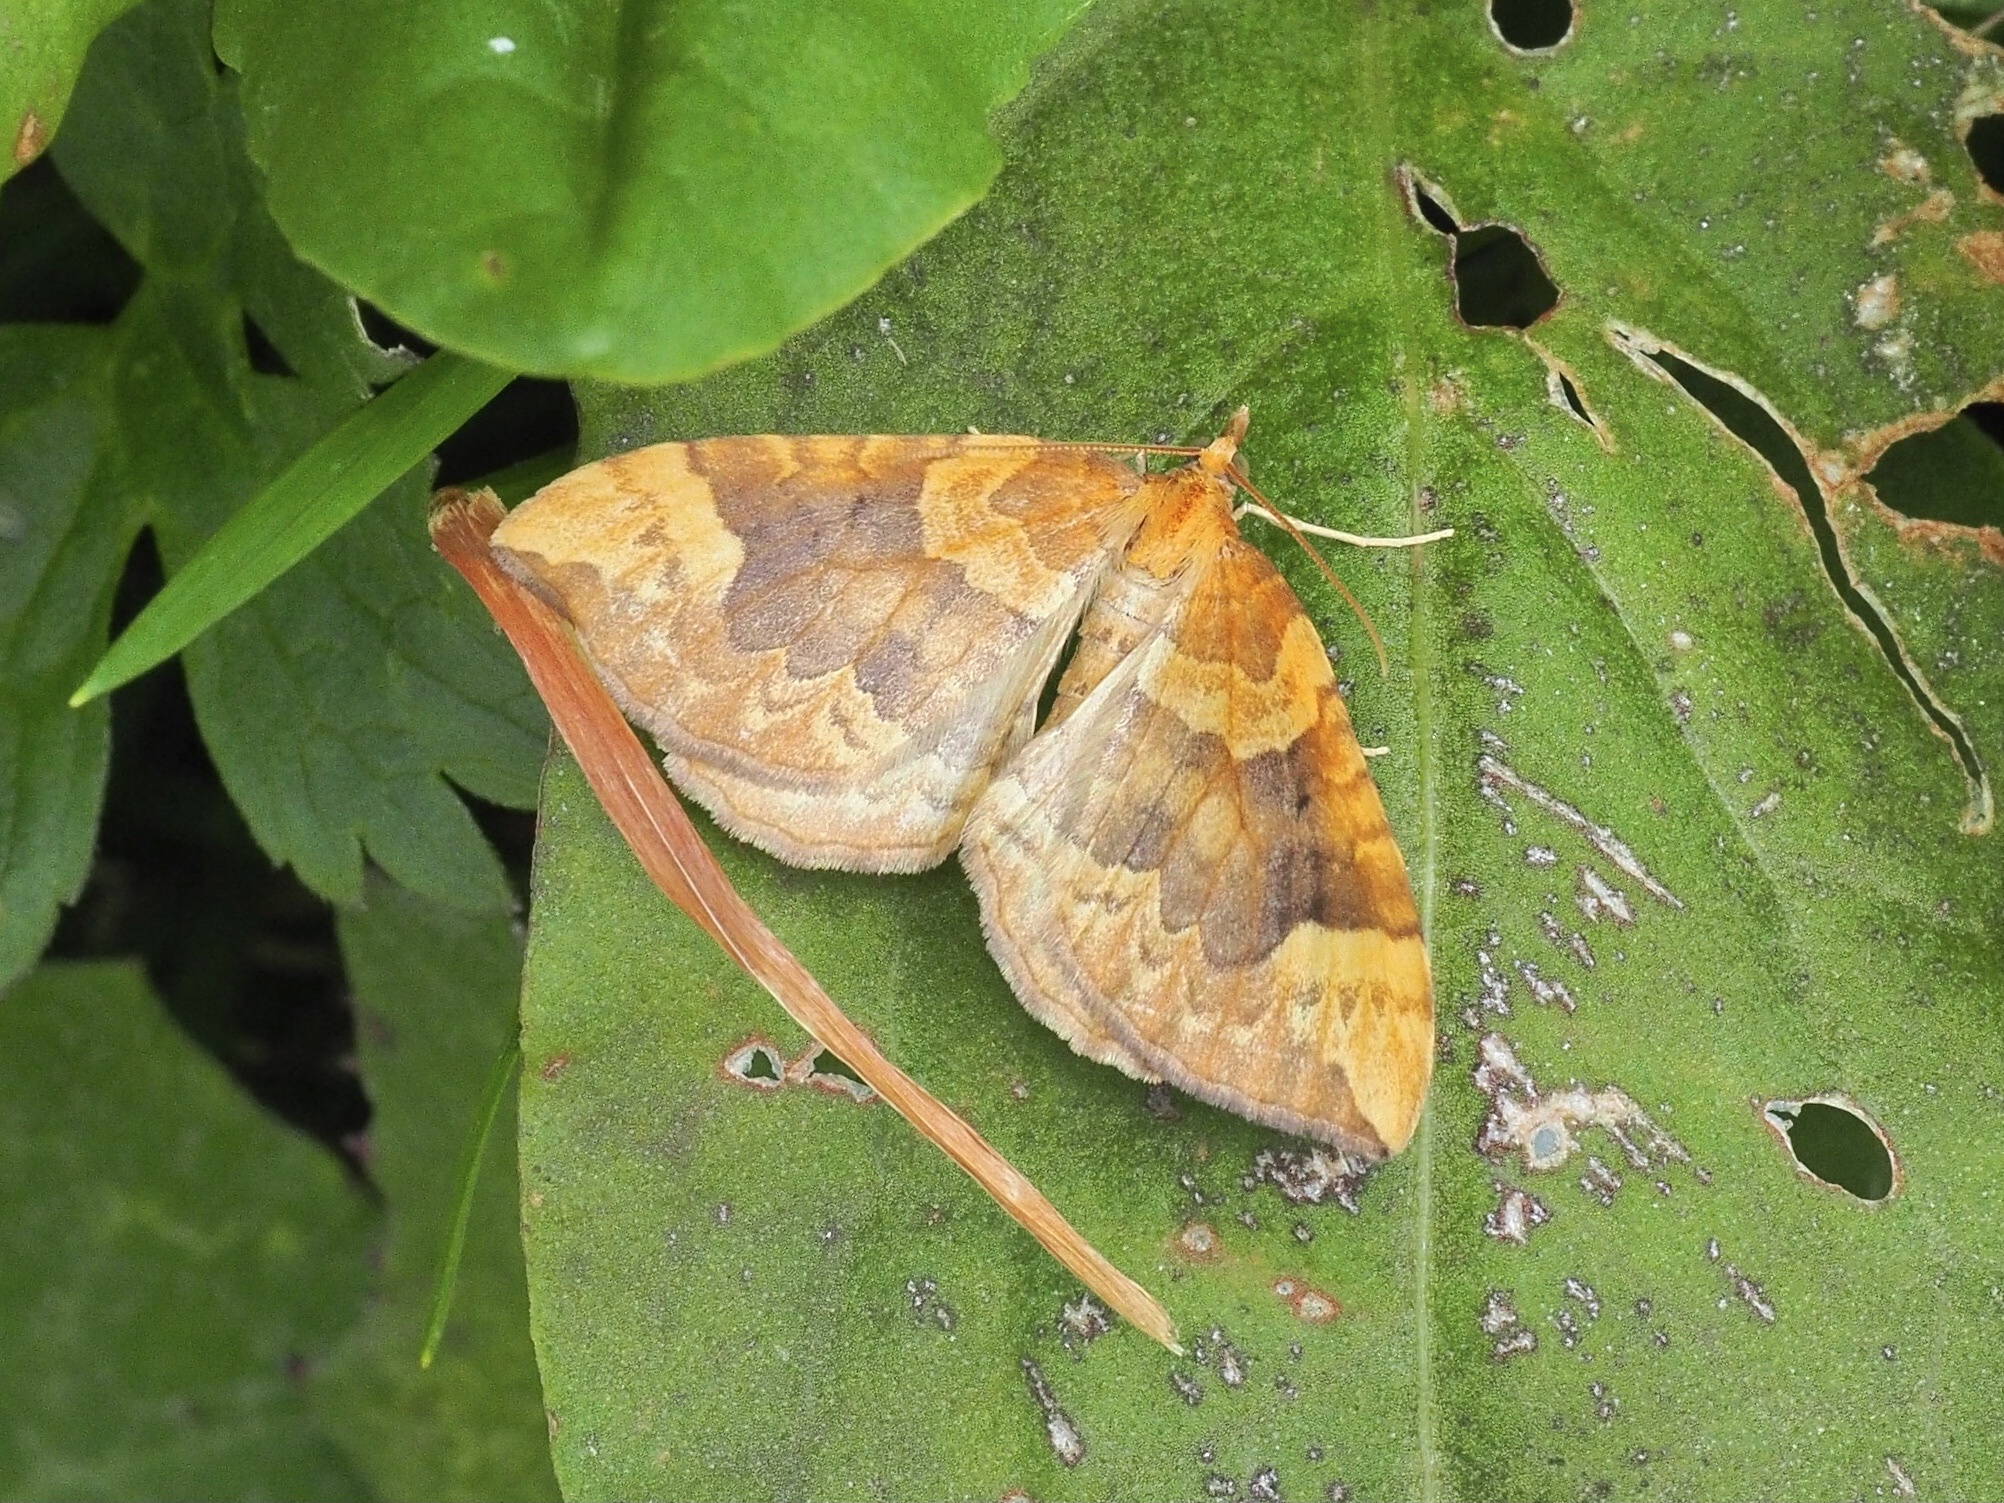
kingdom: Animalia
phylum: Arthropoda
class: Insecta
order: Lepidoptera
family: Geometridae
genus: Eulithis
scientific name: Eulithis populata
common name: Northern spinach
